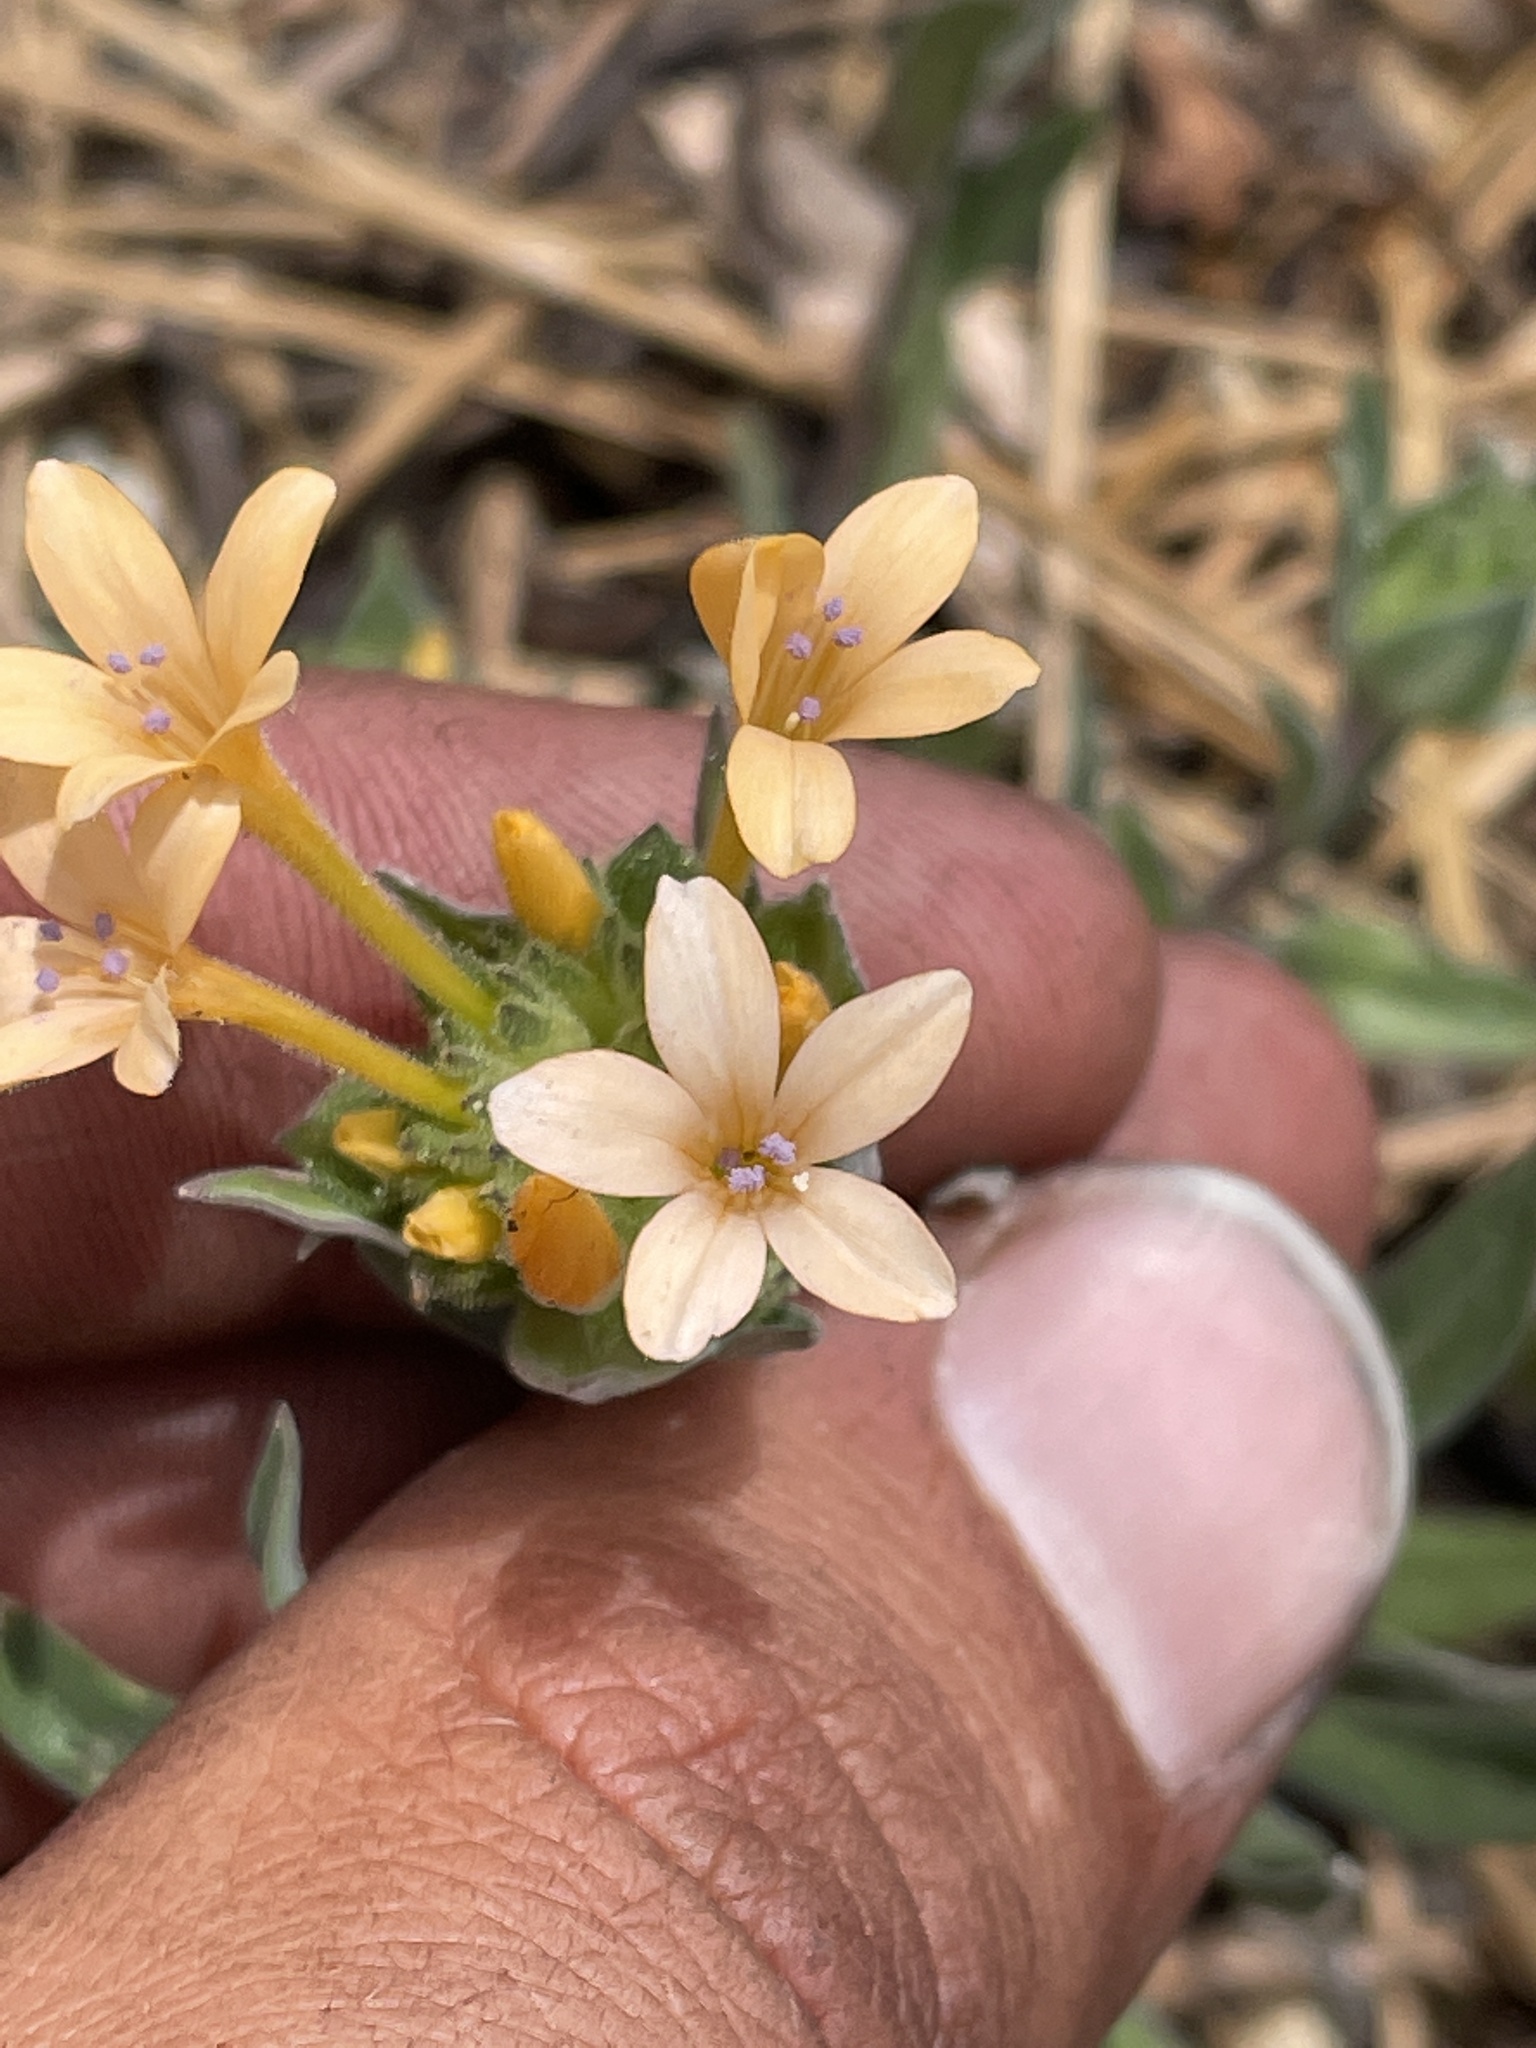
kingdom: Plantae
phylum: Tracheophyta
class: Magnoliopsida
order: Ericales
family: Polemoniaceae
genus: Collomia
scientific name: Collomia grandiflora
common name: California strawflower
